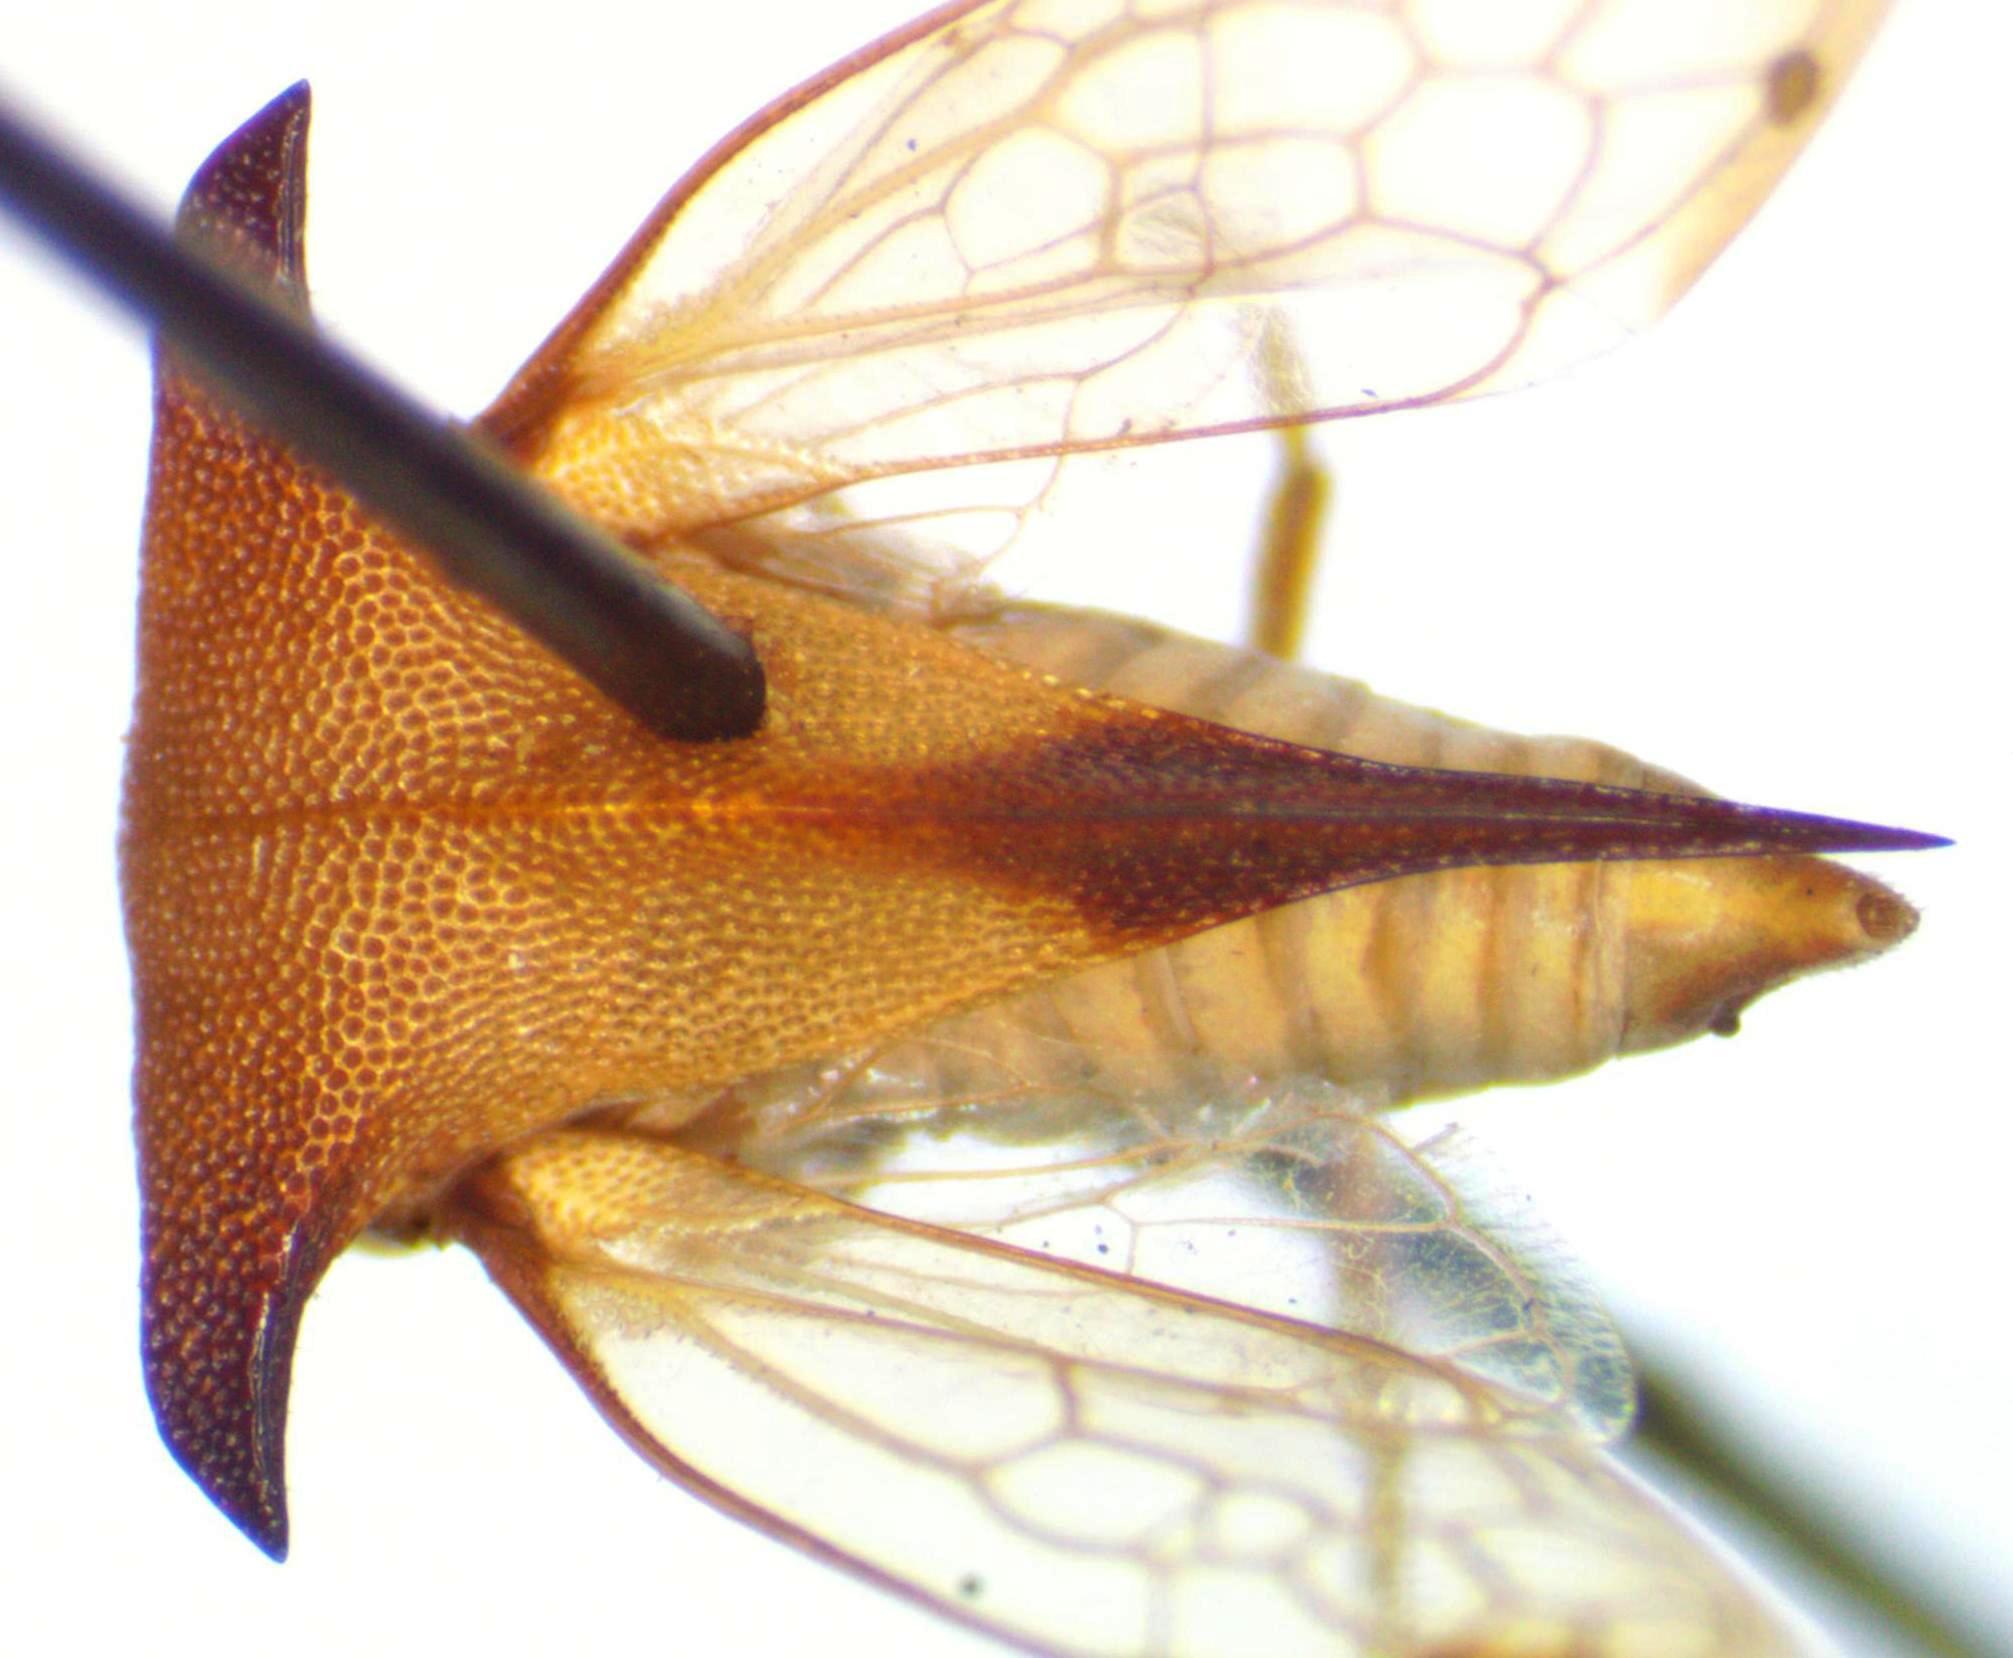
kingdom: Animalia
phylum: Arthropoda
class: Insecta
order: Hemiptera
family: Membracidae
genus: Ceresa
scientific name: Ceresa ustulata
